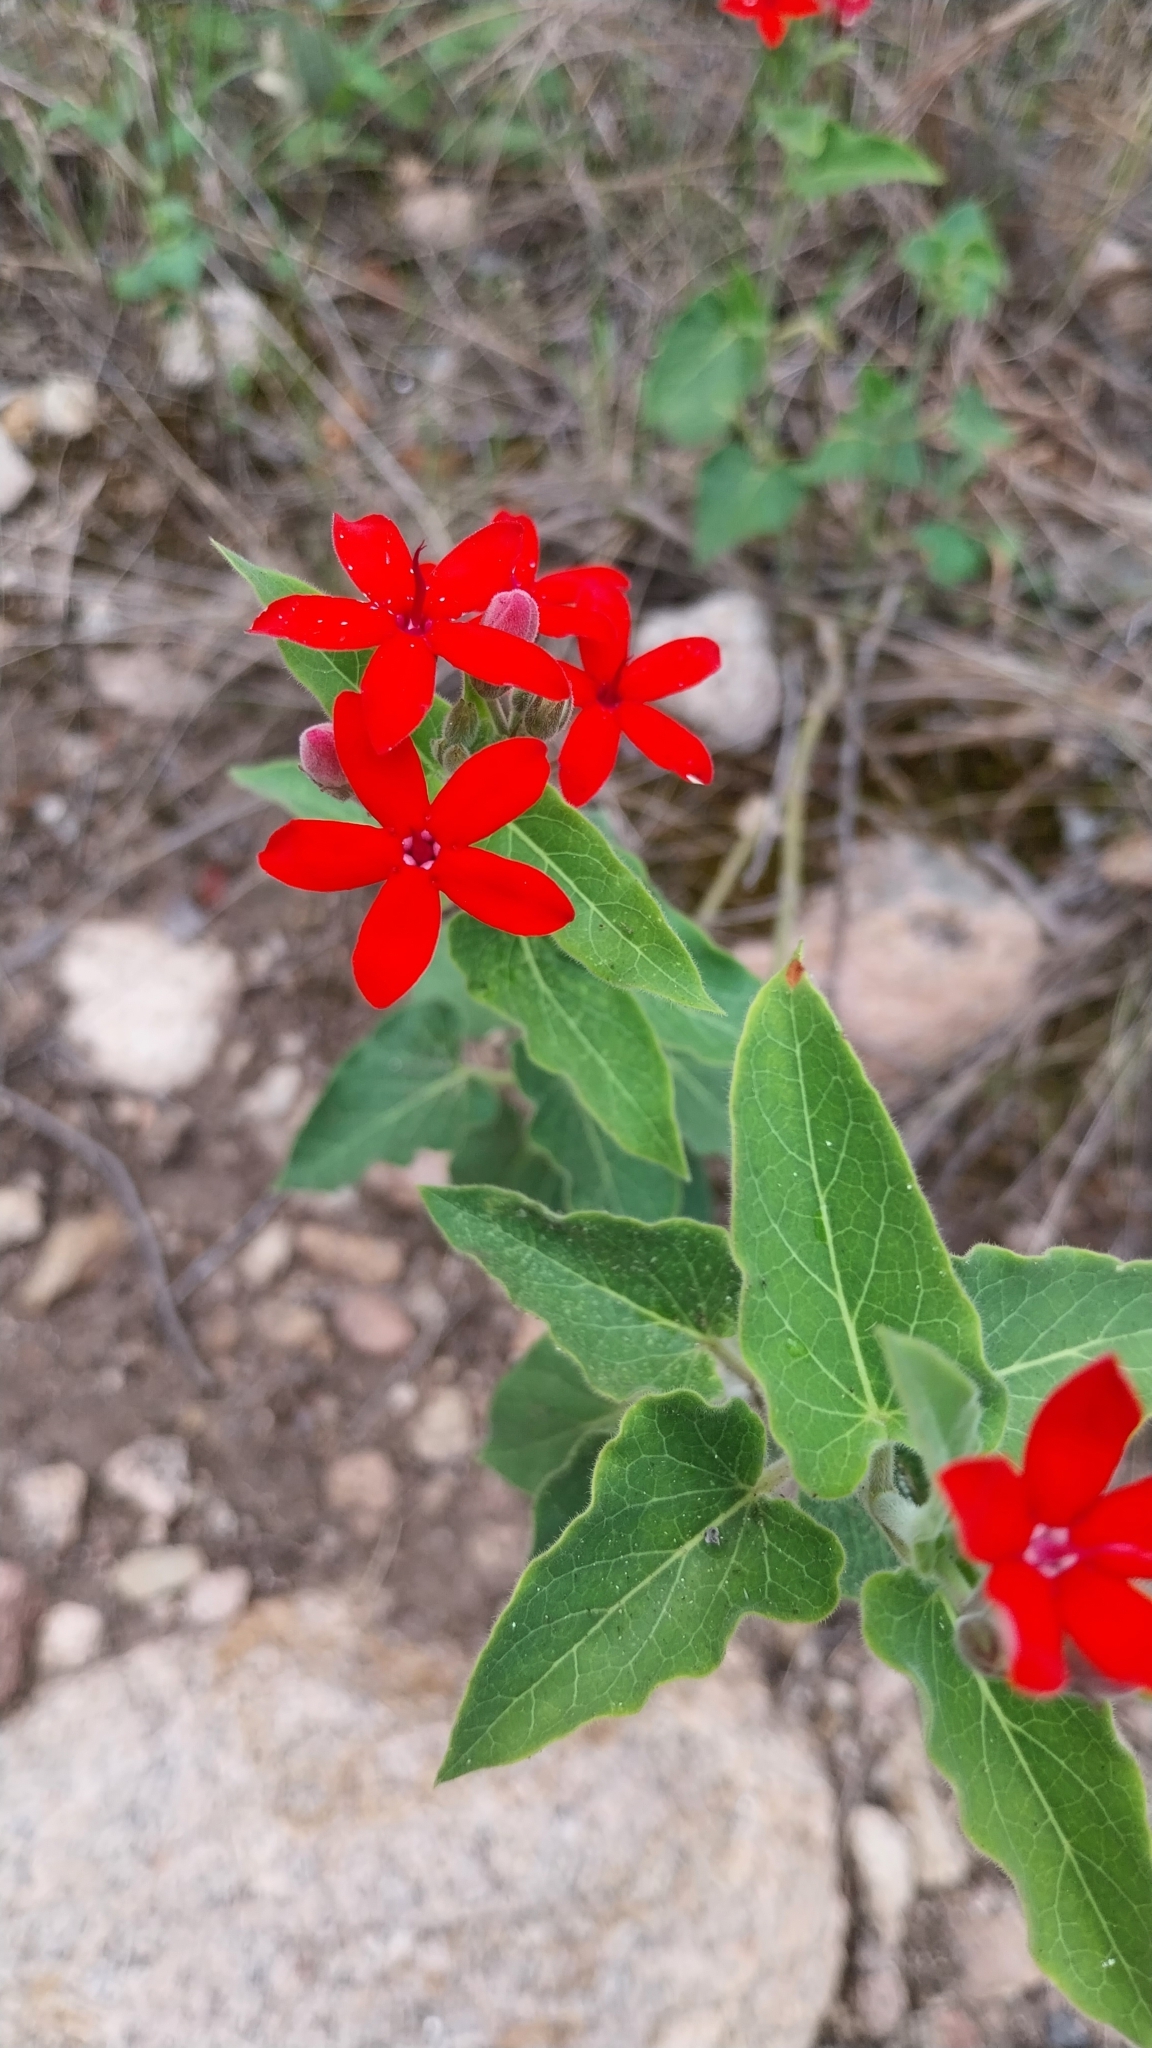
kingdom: Plantae
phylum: Tracheophyta
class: Magnoliopsida
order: Gentianales
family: Apocynaceae
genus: Oxypetalum
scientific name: Oxypetalum coccineum
